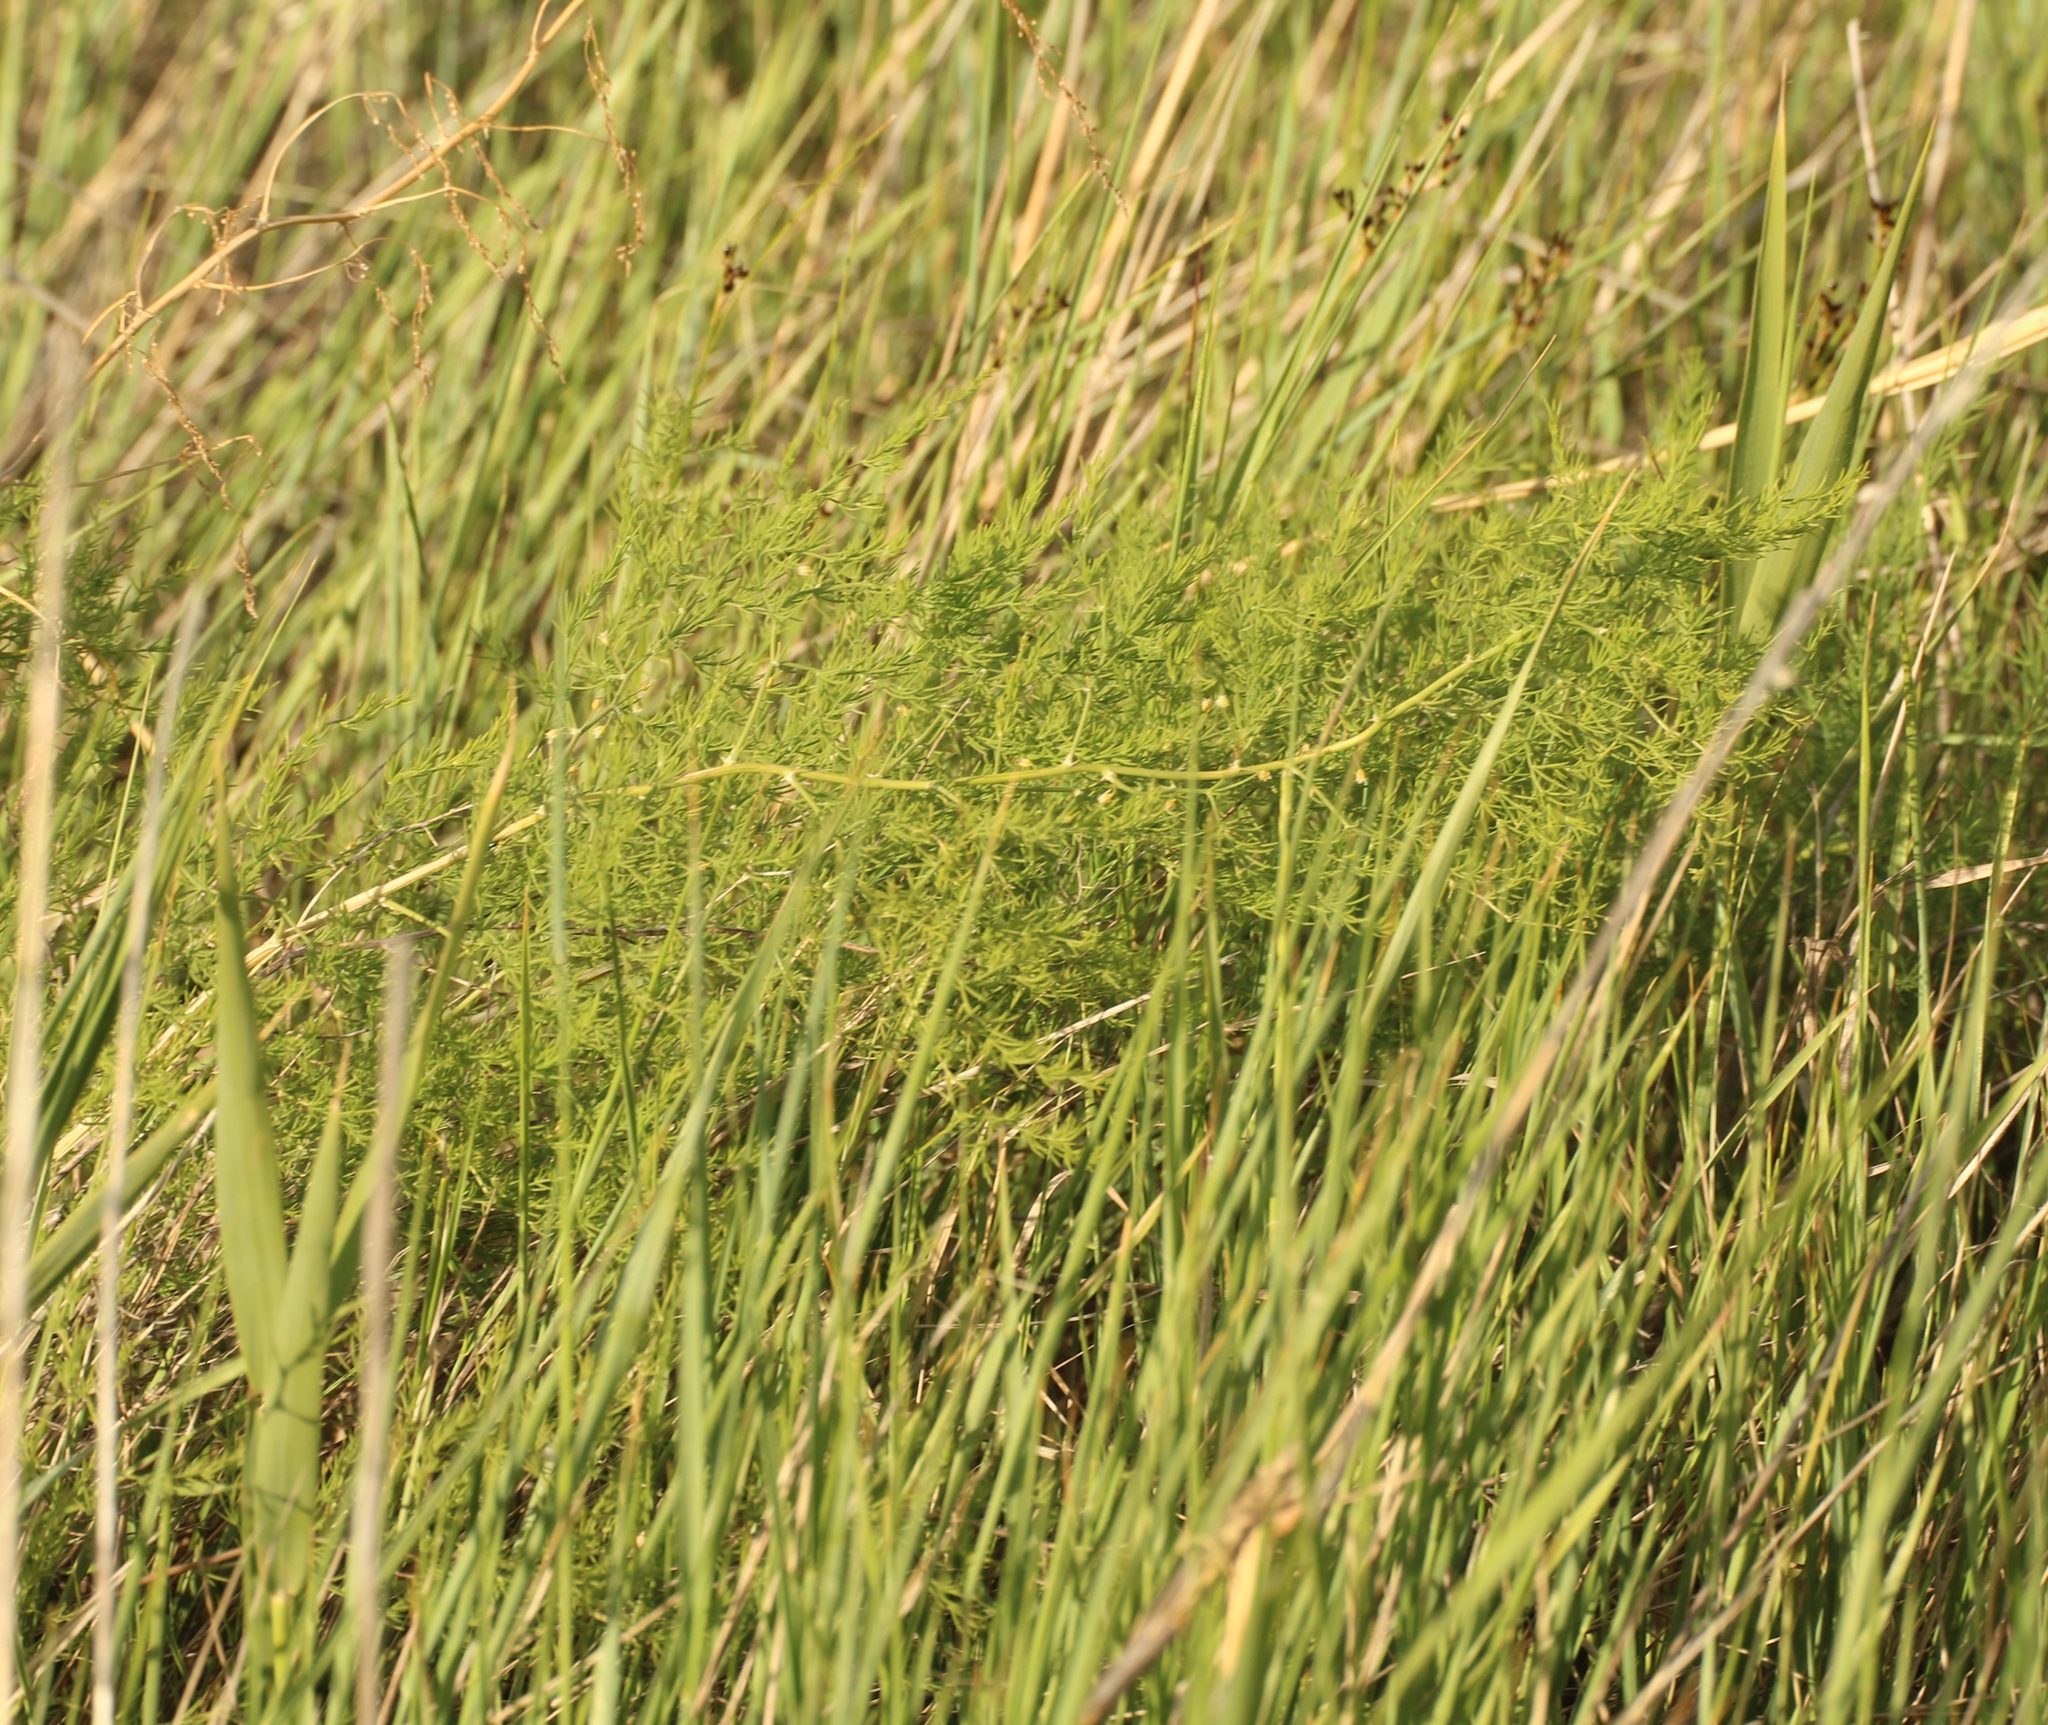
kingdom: Plantae
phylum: Tracheophyta
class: Liliopsida
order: Asparagales
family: Asparagaceae
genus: Asparagus
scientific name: Asparagus pallasii
